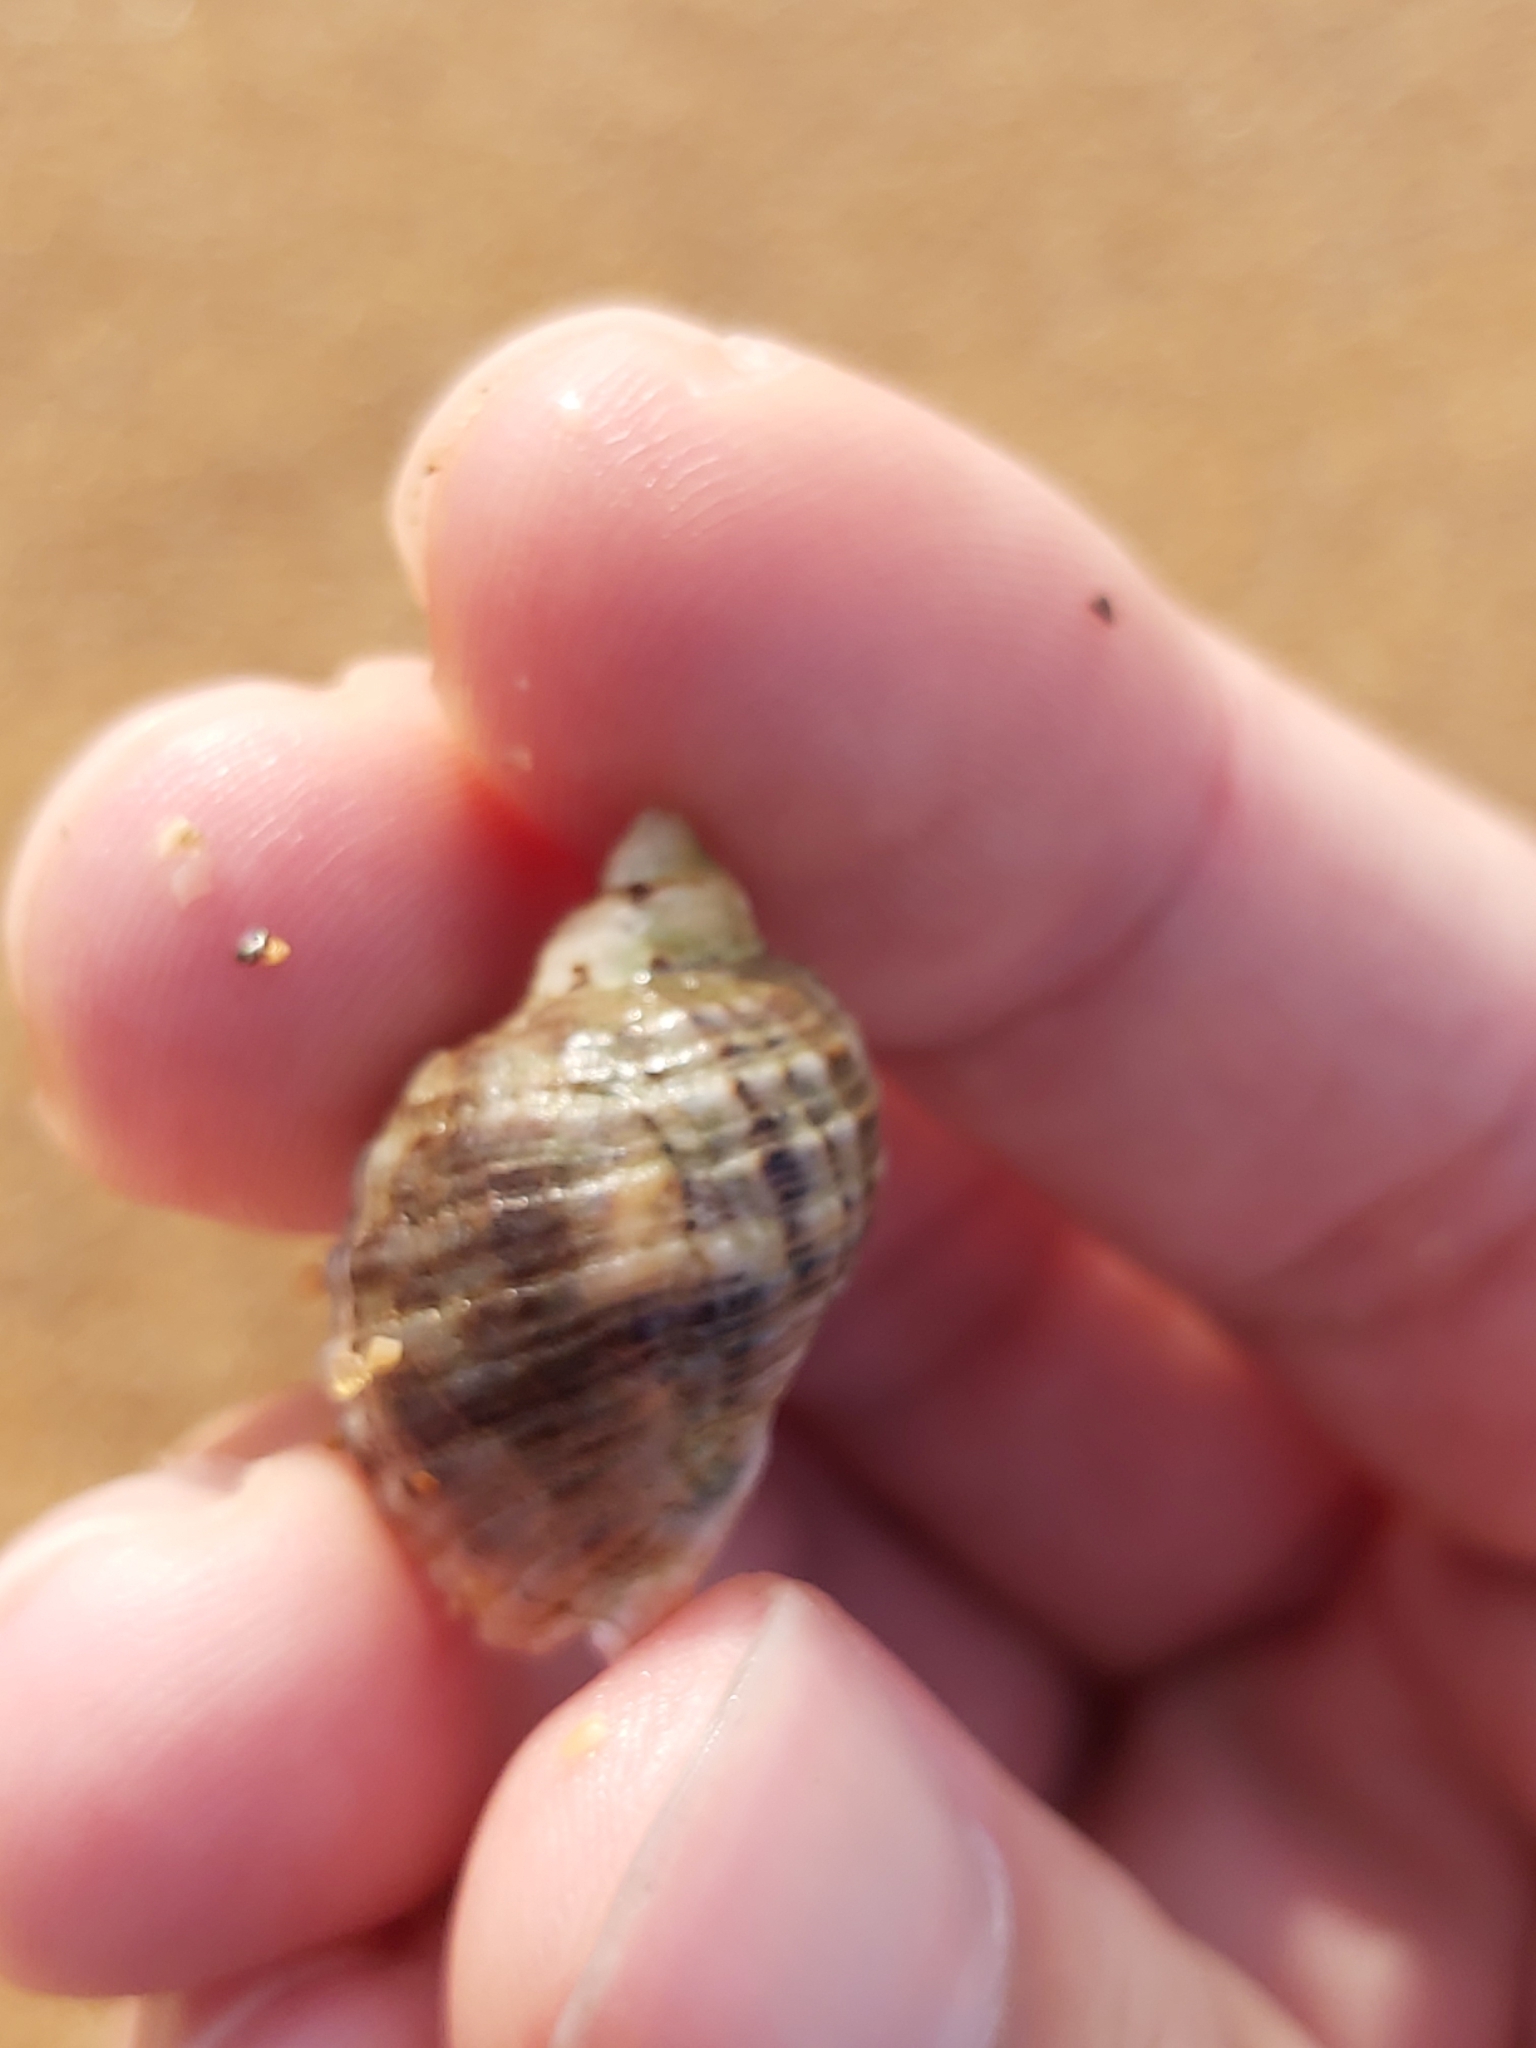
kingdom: Animalia
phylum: Mollusca
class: Gastropoda
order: Neogastropoda
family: Muricidae
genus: Dicathais
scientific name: Dicathais orbita
